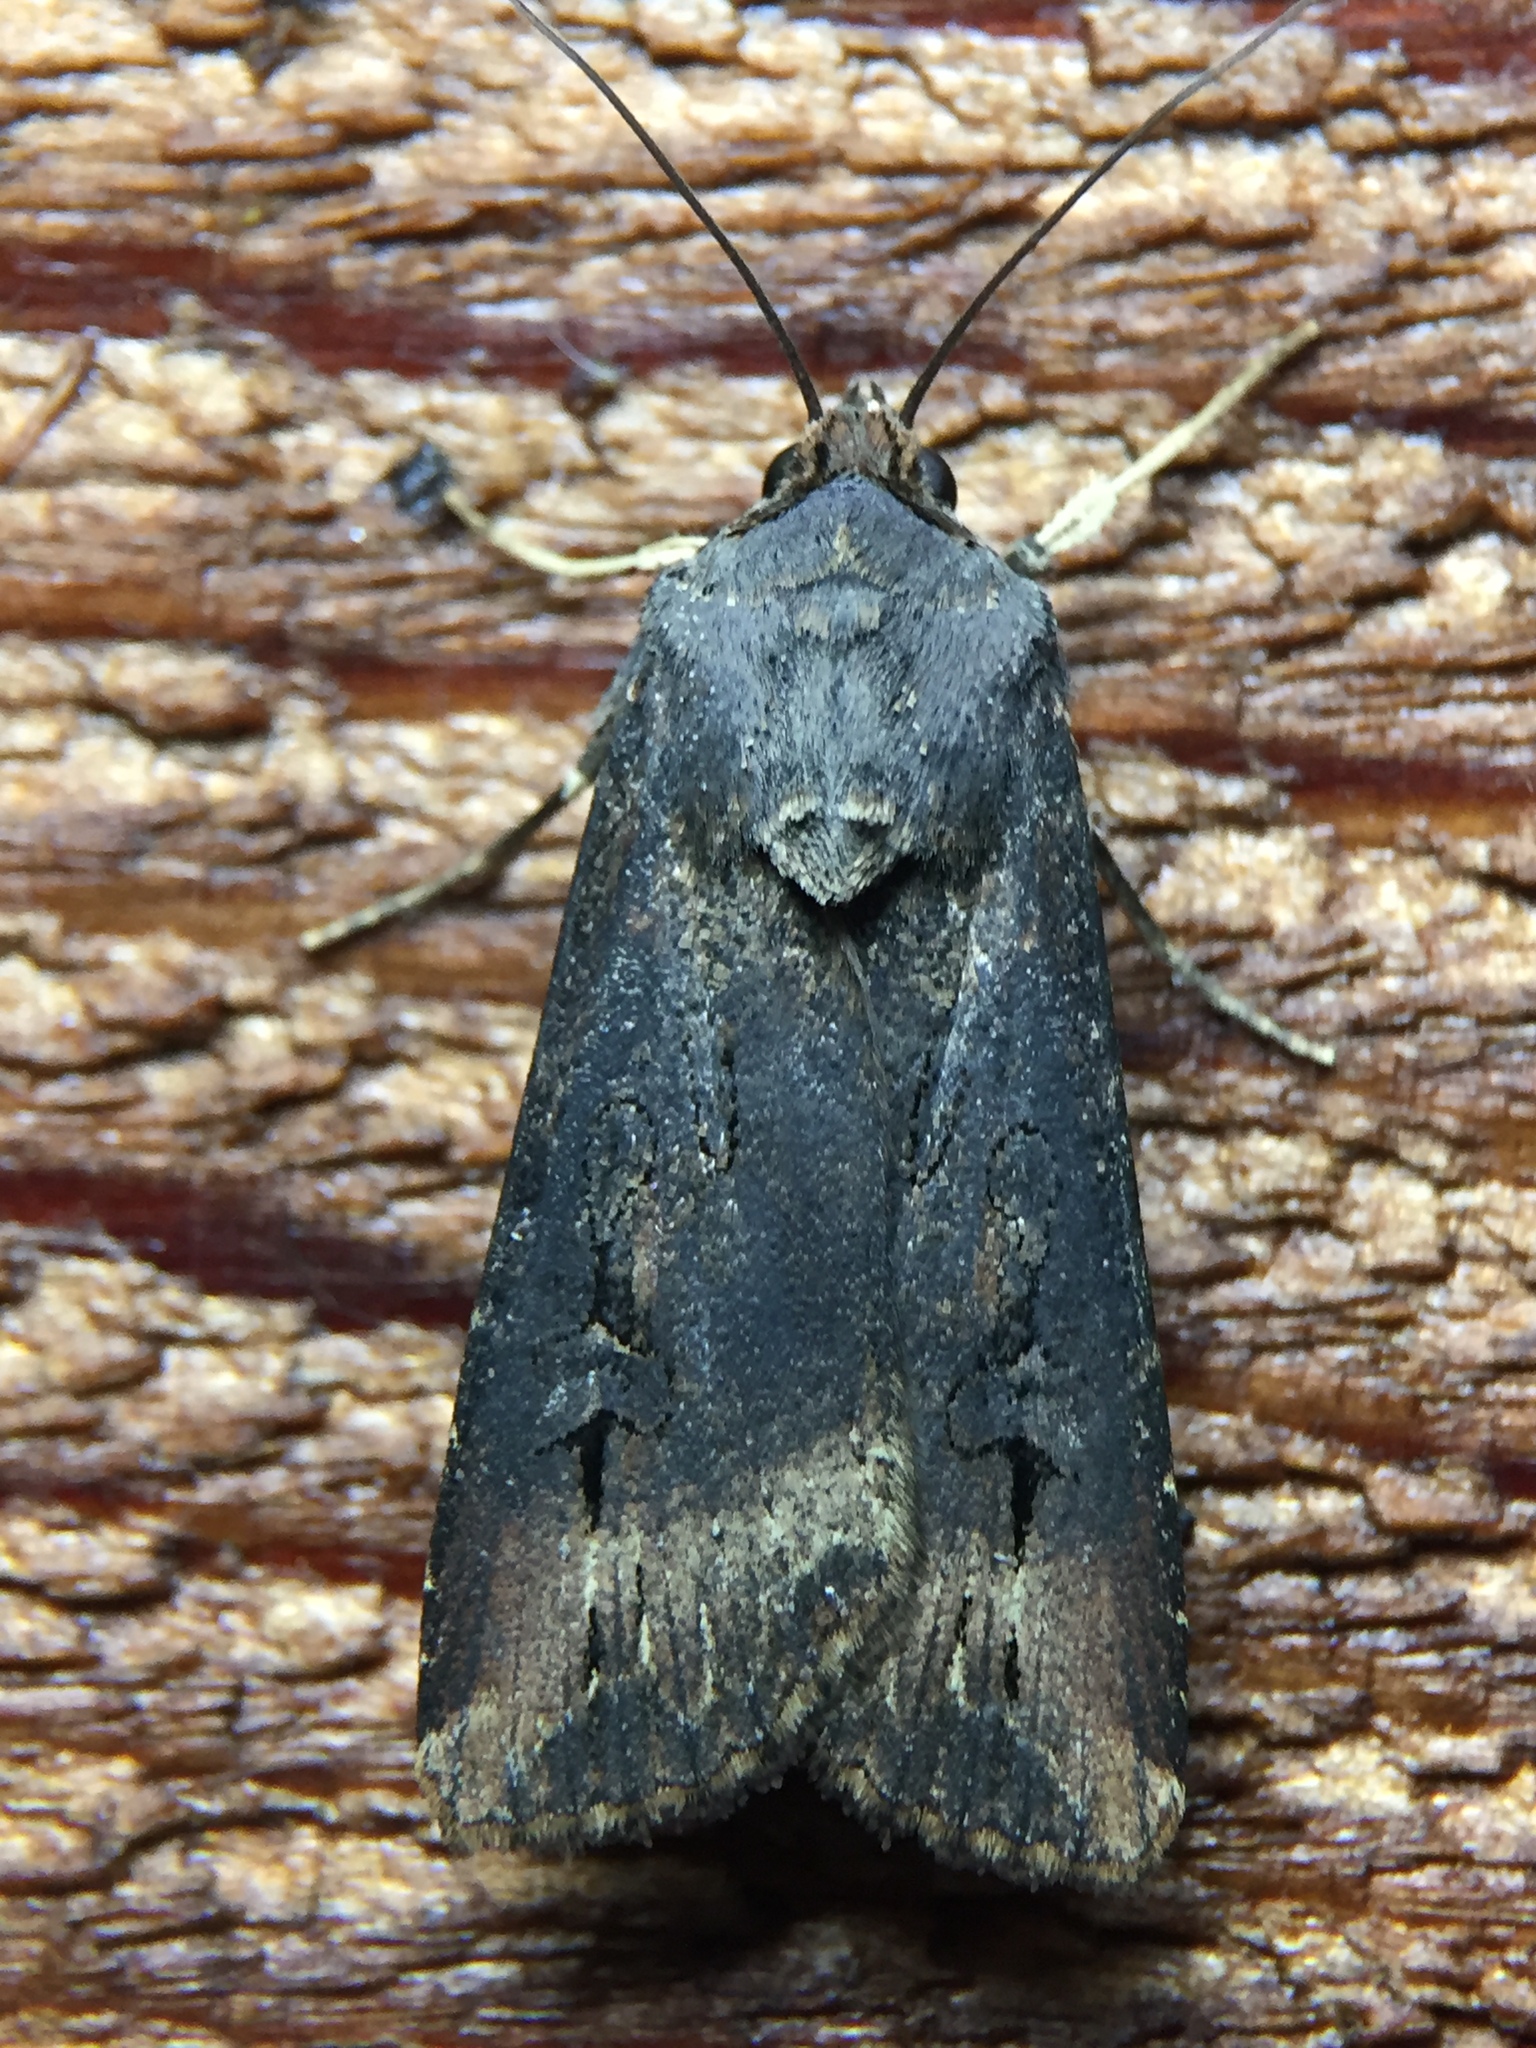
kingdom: Animalia
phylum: Arthropoda
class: Insecta
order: Lepidoptera
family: Noctuidae
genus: Agrotis
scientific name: Agrotis ipsilon
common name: Dark sword-grass
